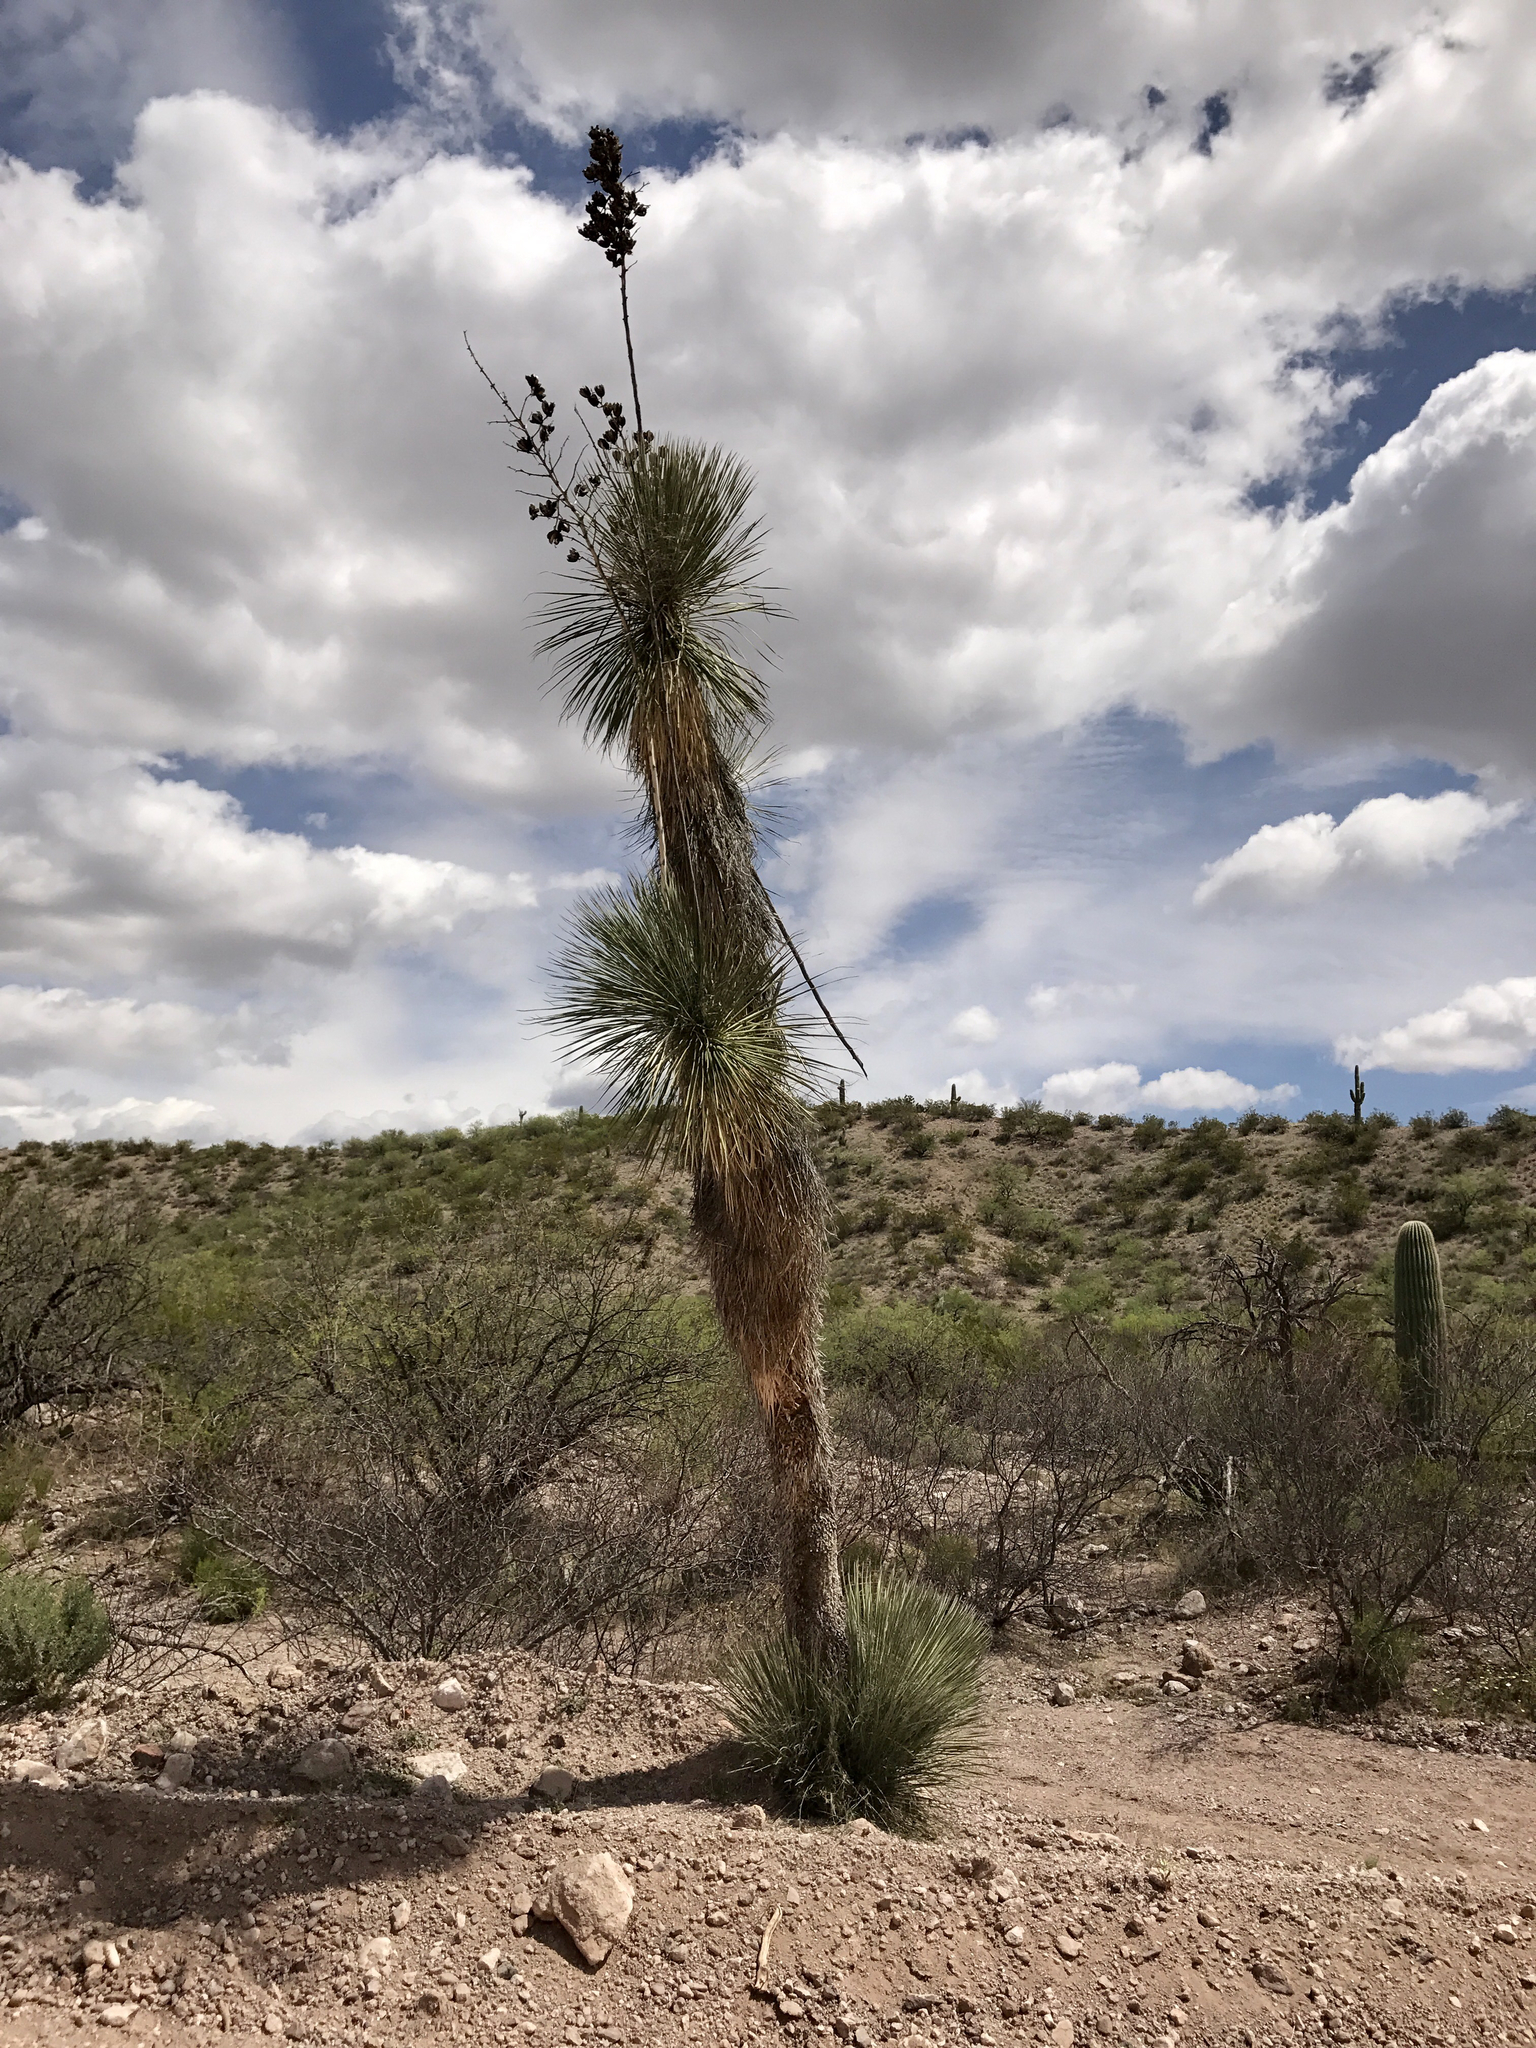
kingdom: Plantae
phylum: Tracheophyta
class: Liliopsida
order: Asparagales
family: Asparagaceae
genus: Yucca
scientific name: Yucca elata
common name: Palmella
